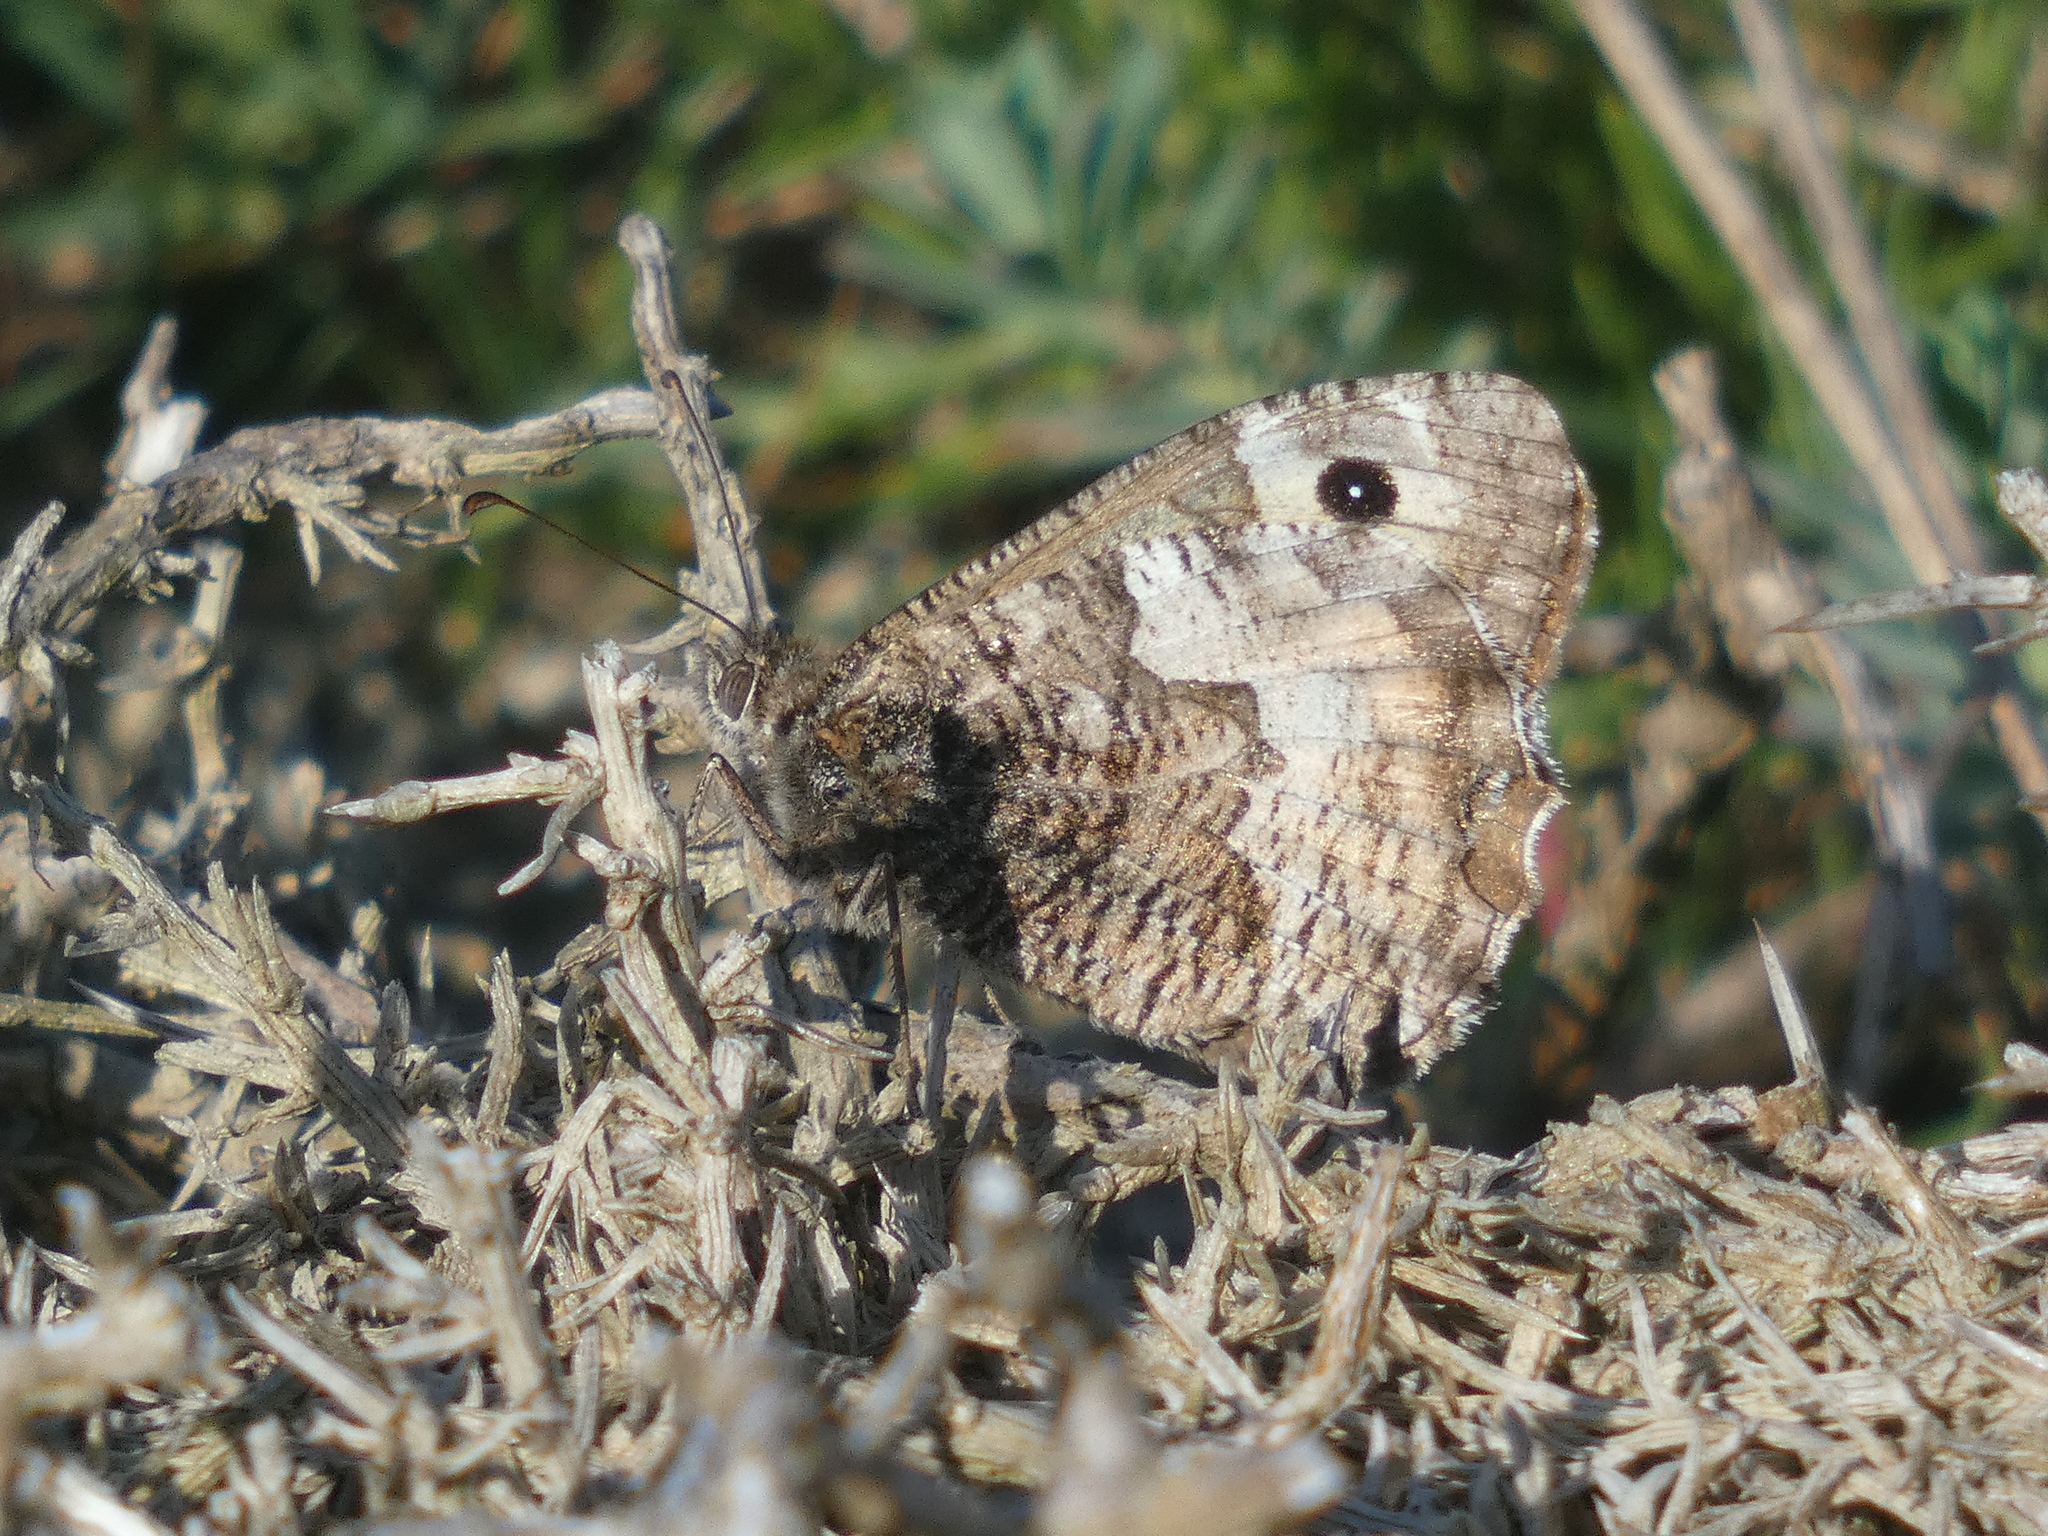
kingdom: Animalia
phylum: Arthropoda
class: Insecta
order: Lepidoptera
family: Nymphalidae
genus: Hipparchia
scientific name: Hipparchia semele
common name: Grayling
